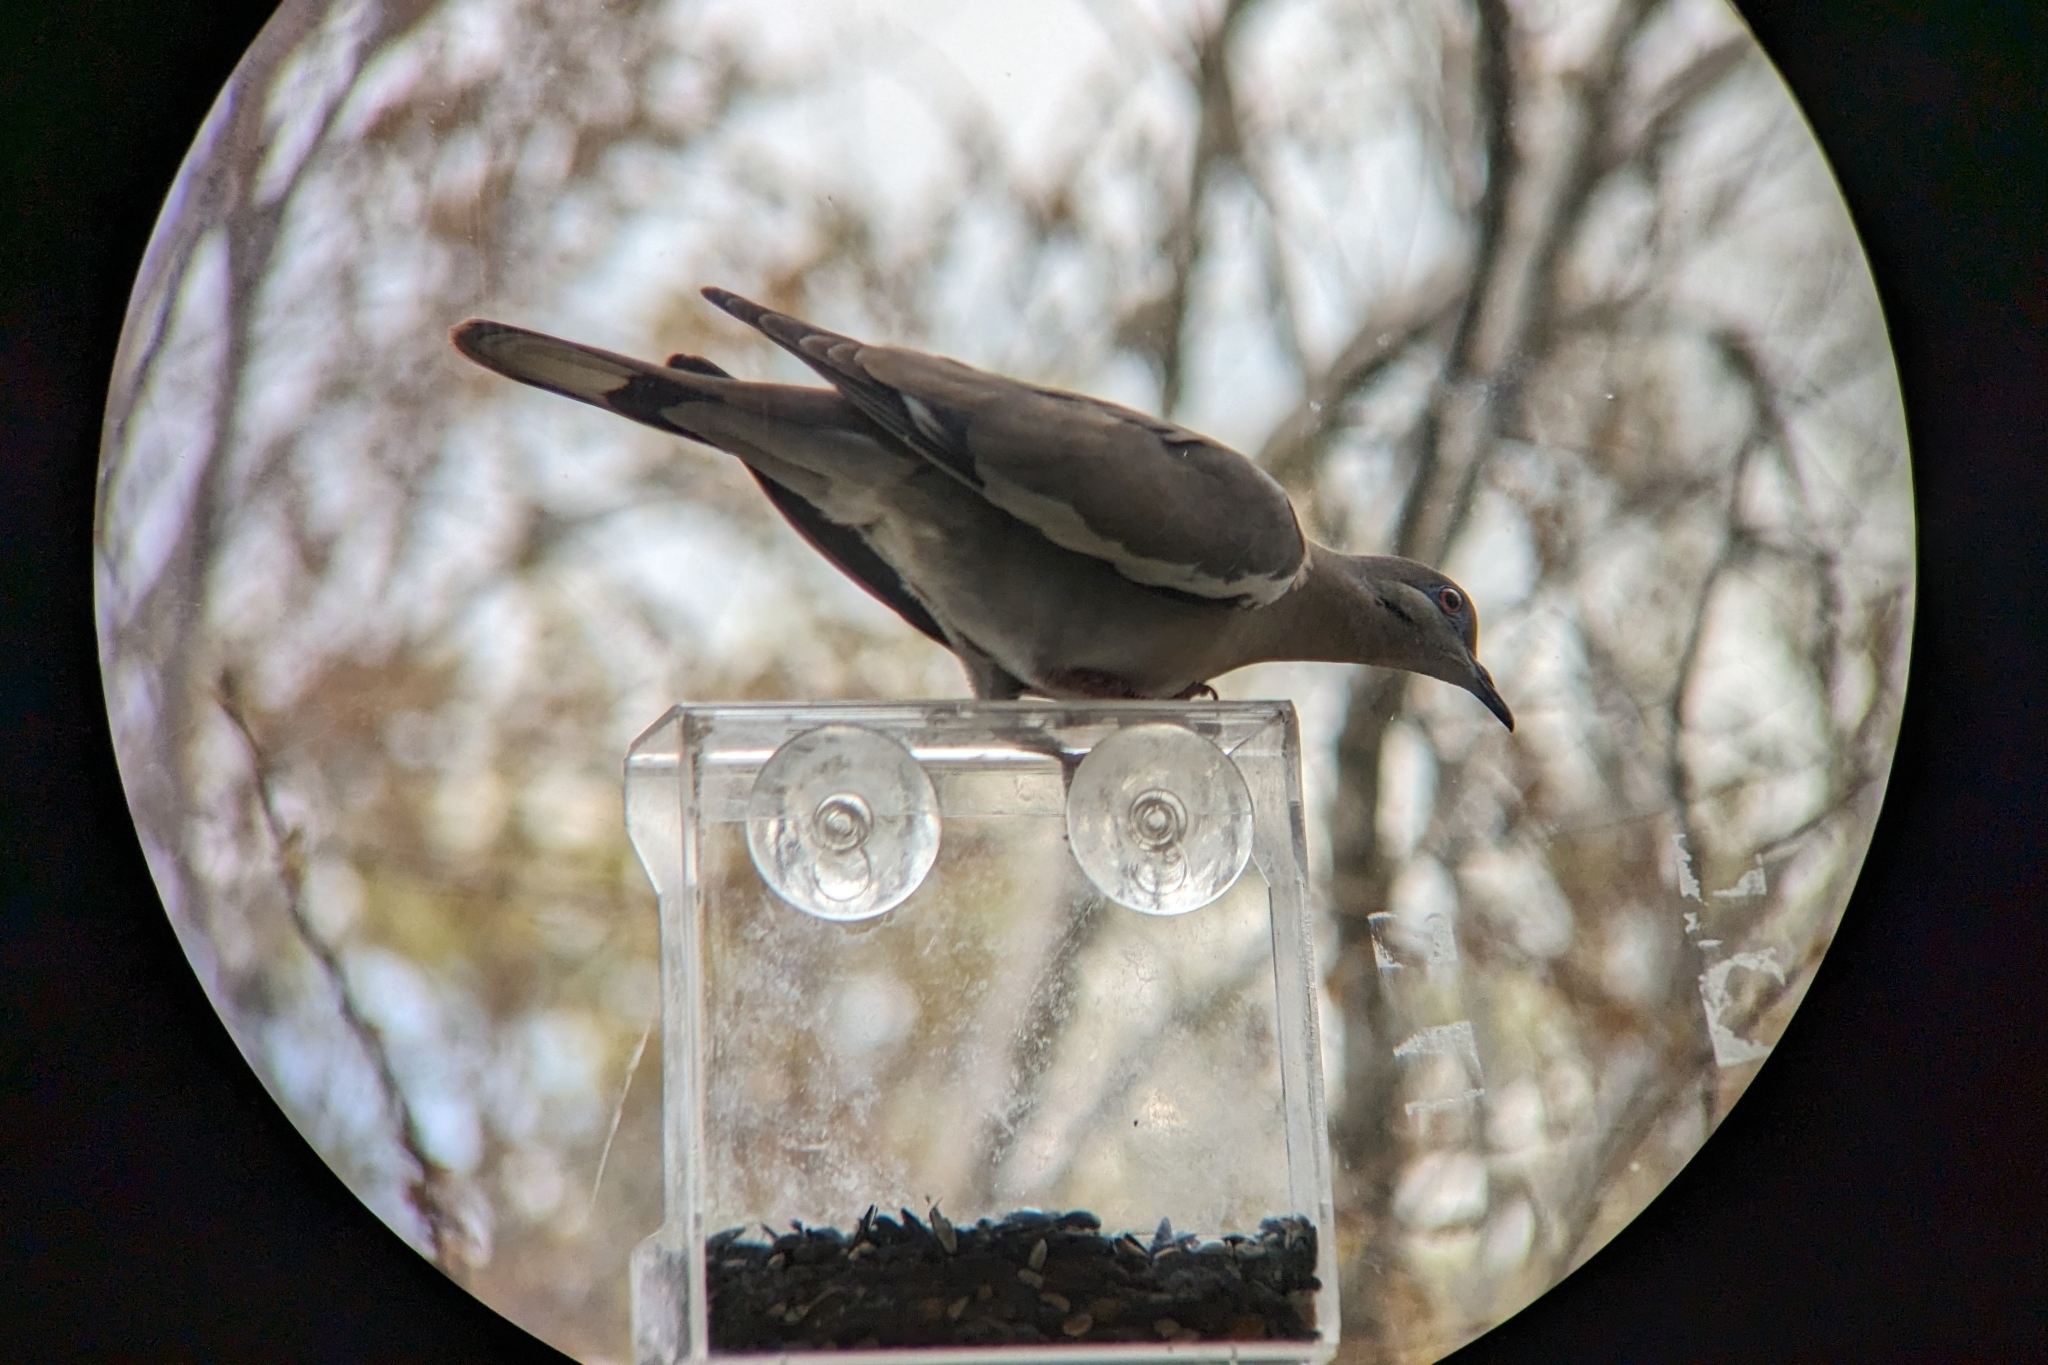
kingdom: Animalia
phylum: Chordata
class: Aves
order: Columbiformes
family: Columbidae
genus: Zenaida
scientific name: Zenaida asiatica
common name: White-winged dove
